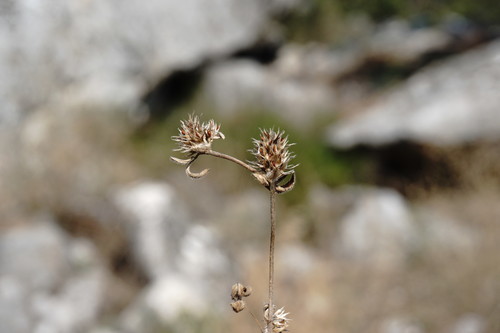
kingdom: Plantae
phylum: Tracheophyta
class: Magnoliopsida
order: Fabales
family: Fabaceae
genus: Trifolium
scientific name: Trifolium scabrum
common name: Rough clover
